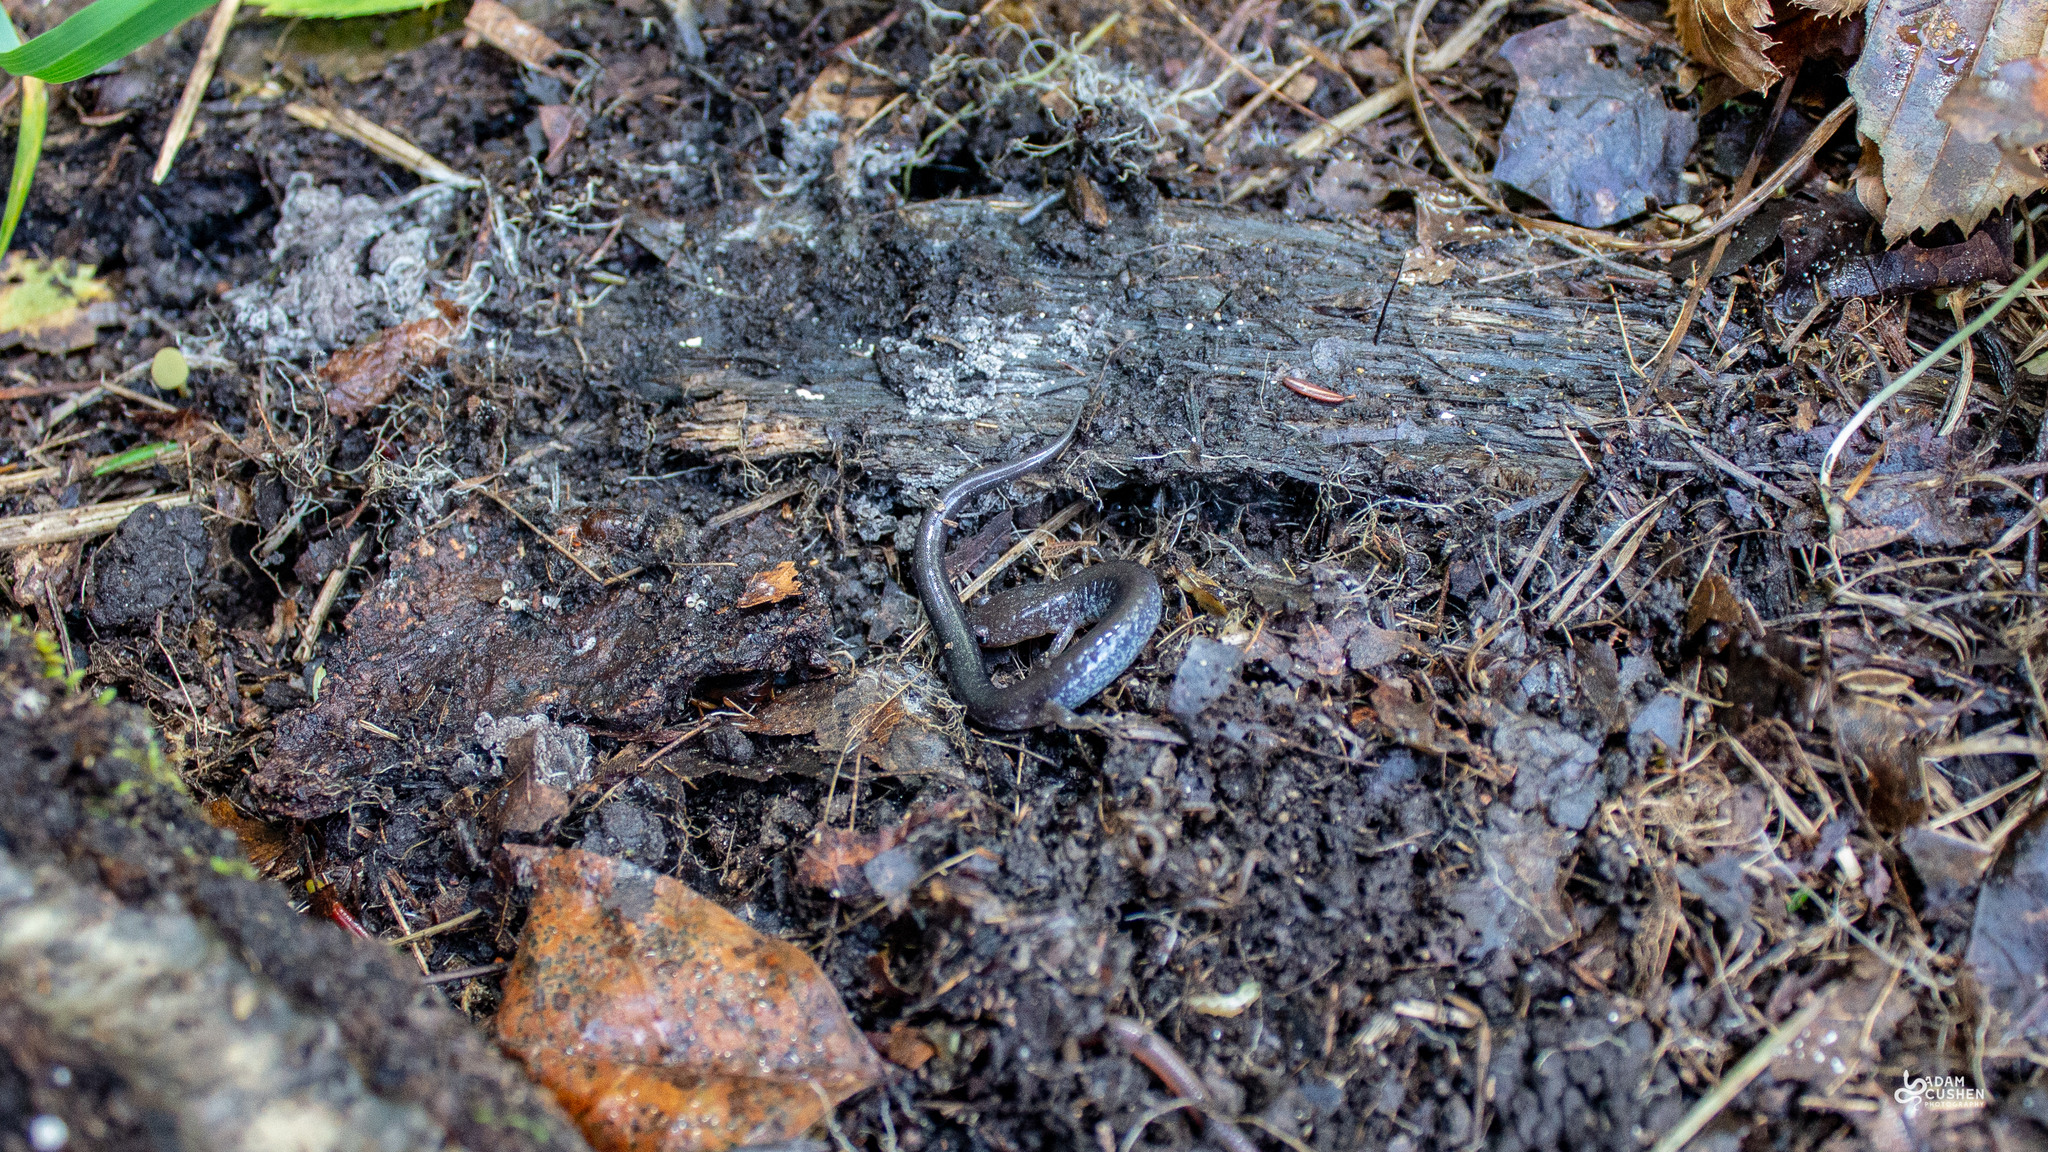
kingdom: Animalia
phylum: Chordata
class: Amphibia
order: Caudata
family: Plethodontidae
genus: Plethodon
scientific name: Plethodon cinereus
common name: Redback salamander
